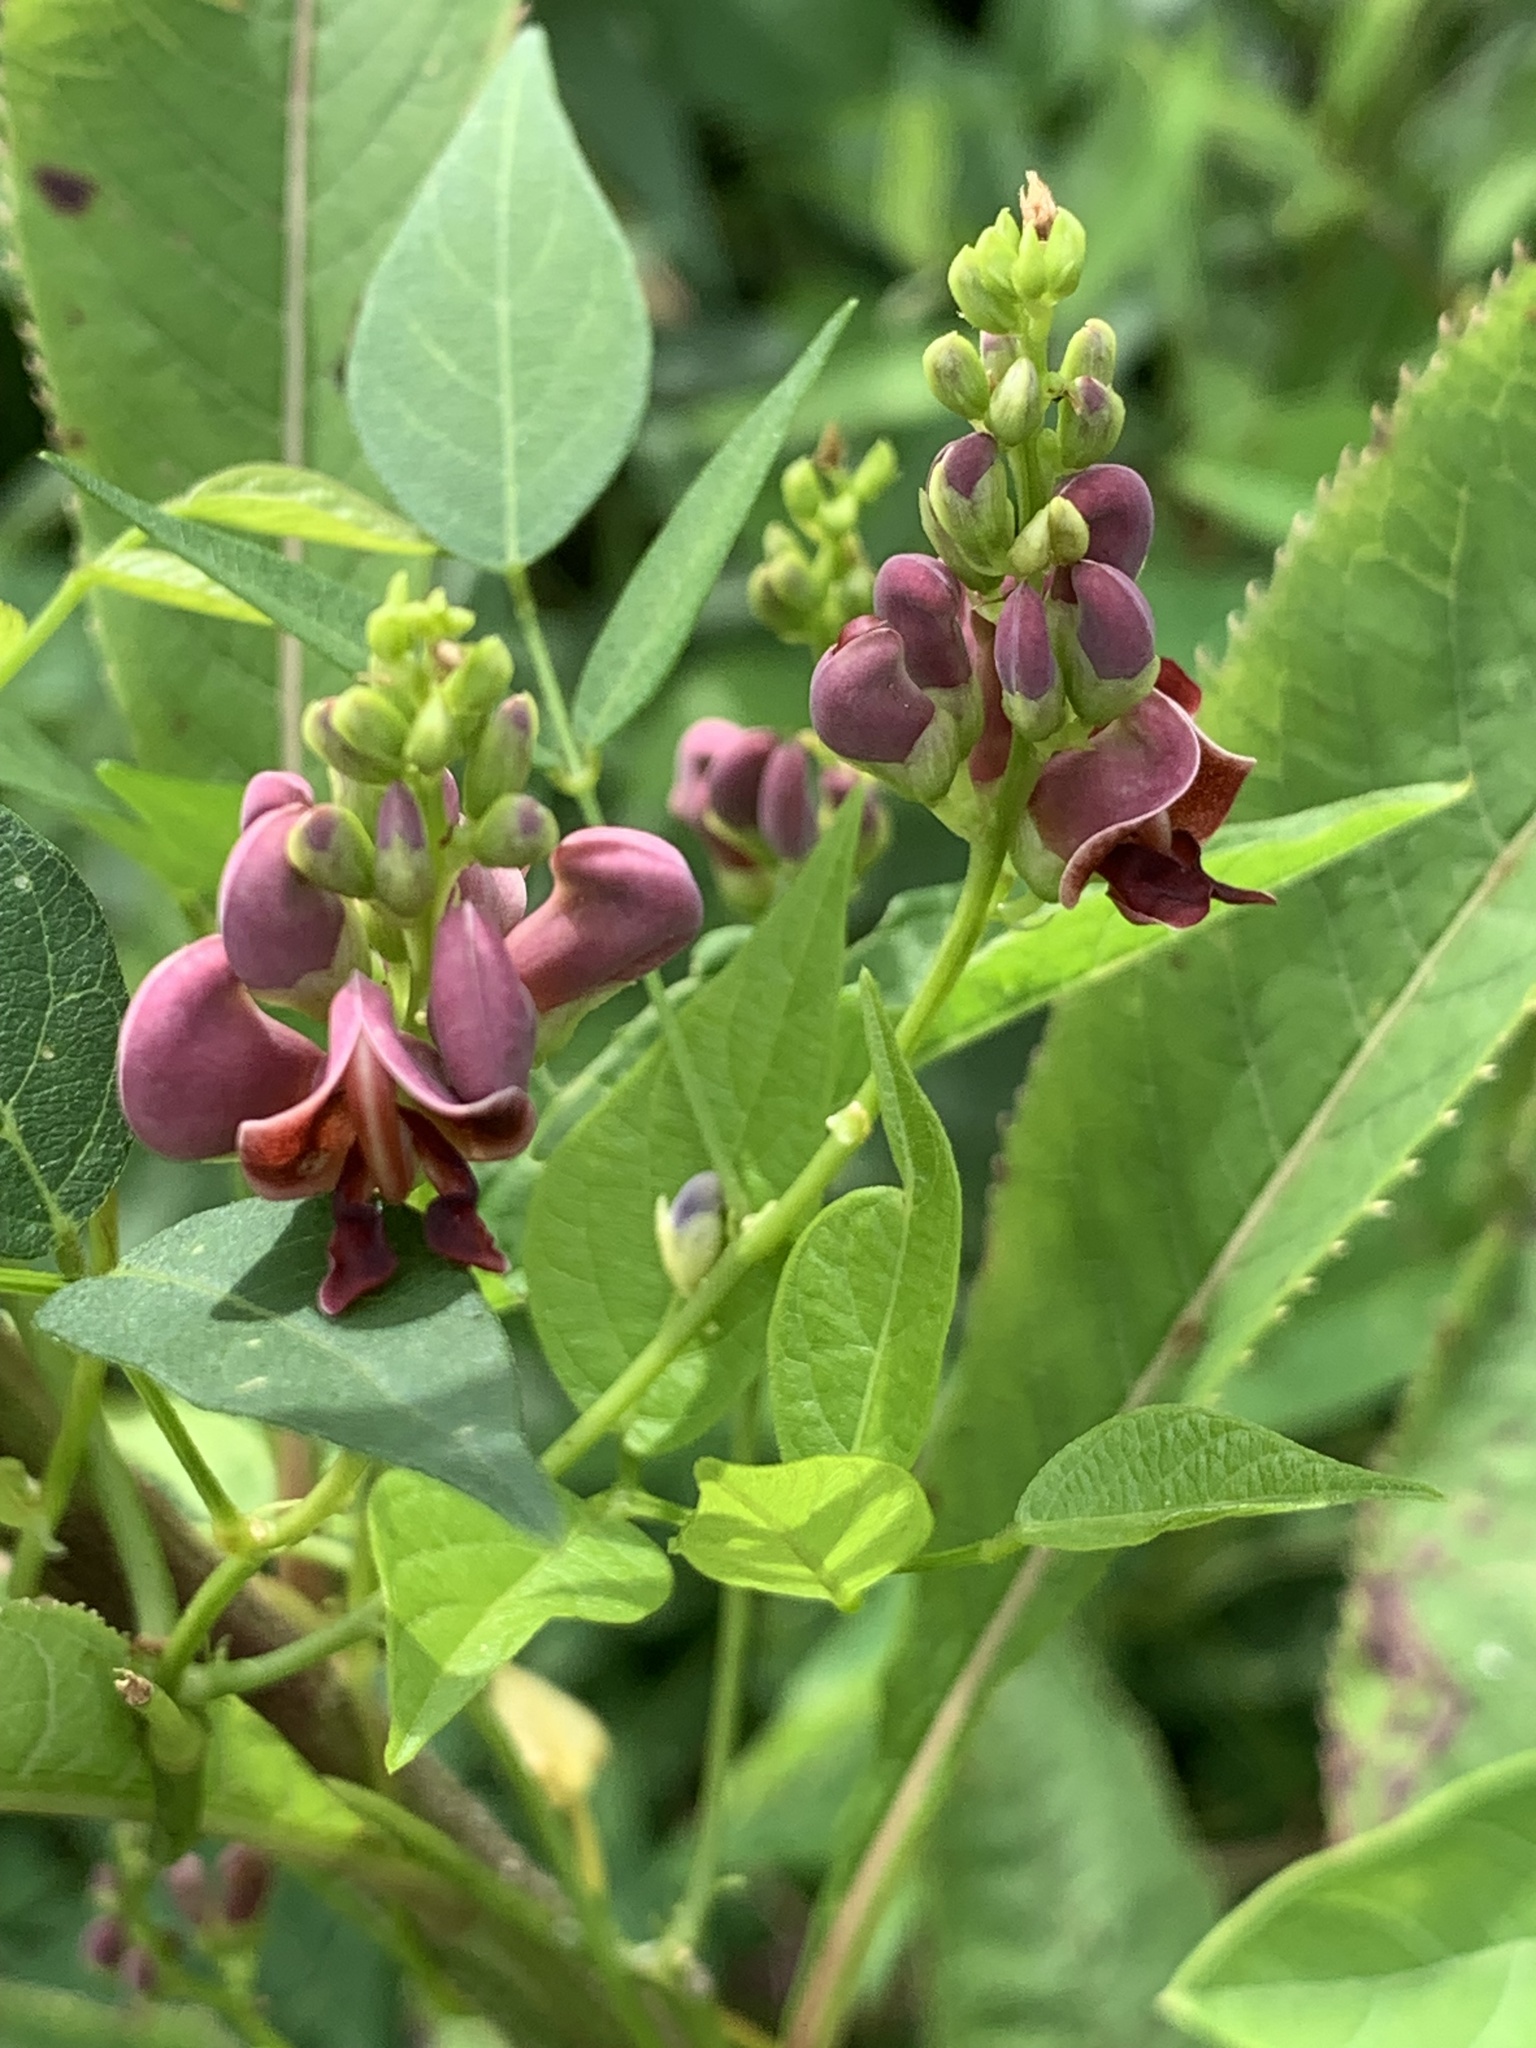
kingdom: Plantae
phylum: Tracheophyta
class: Magnoliopsida
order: Fabales
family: Fabaceae
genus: Apios
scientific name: Apios americana
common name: American potato-bean
